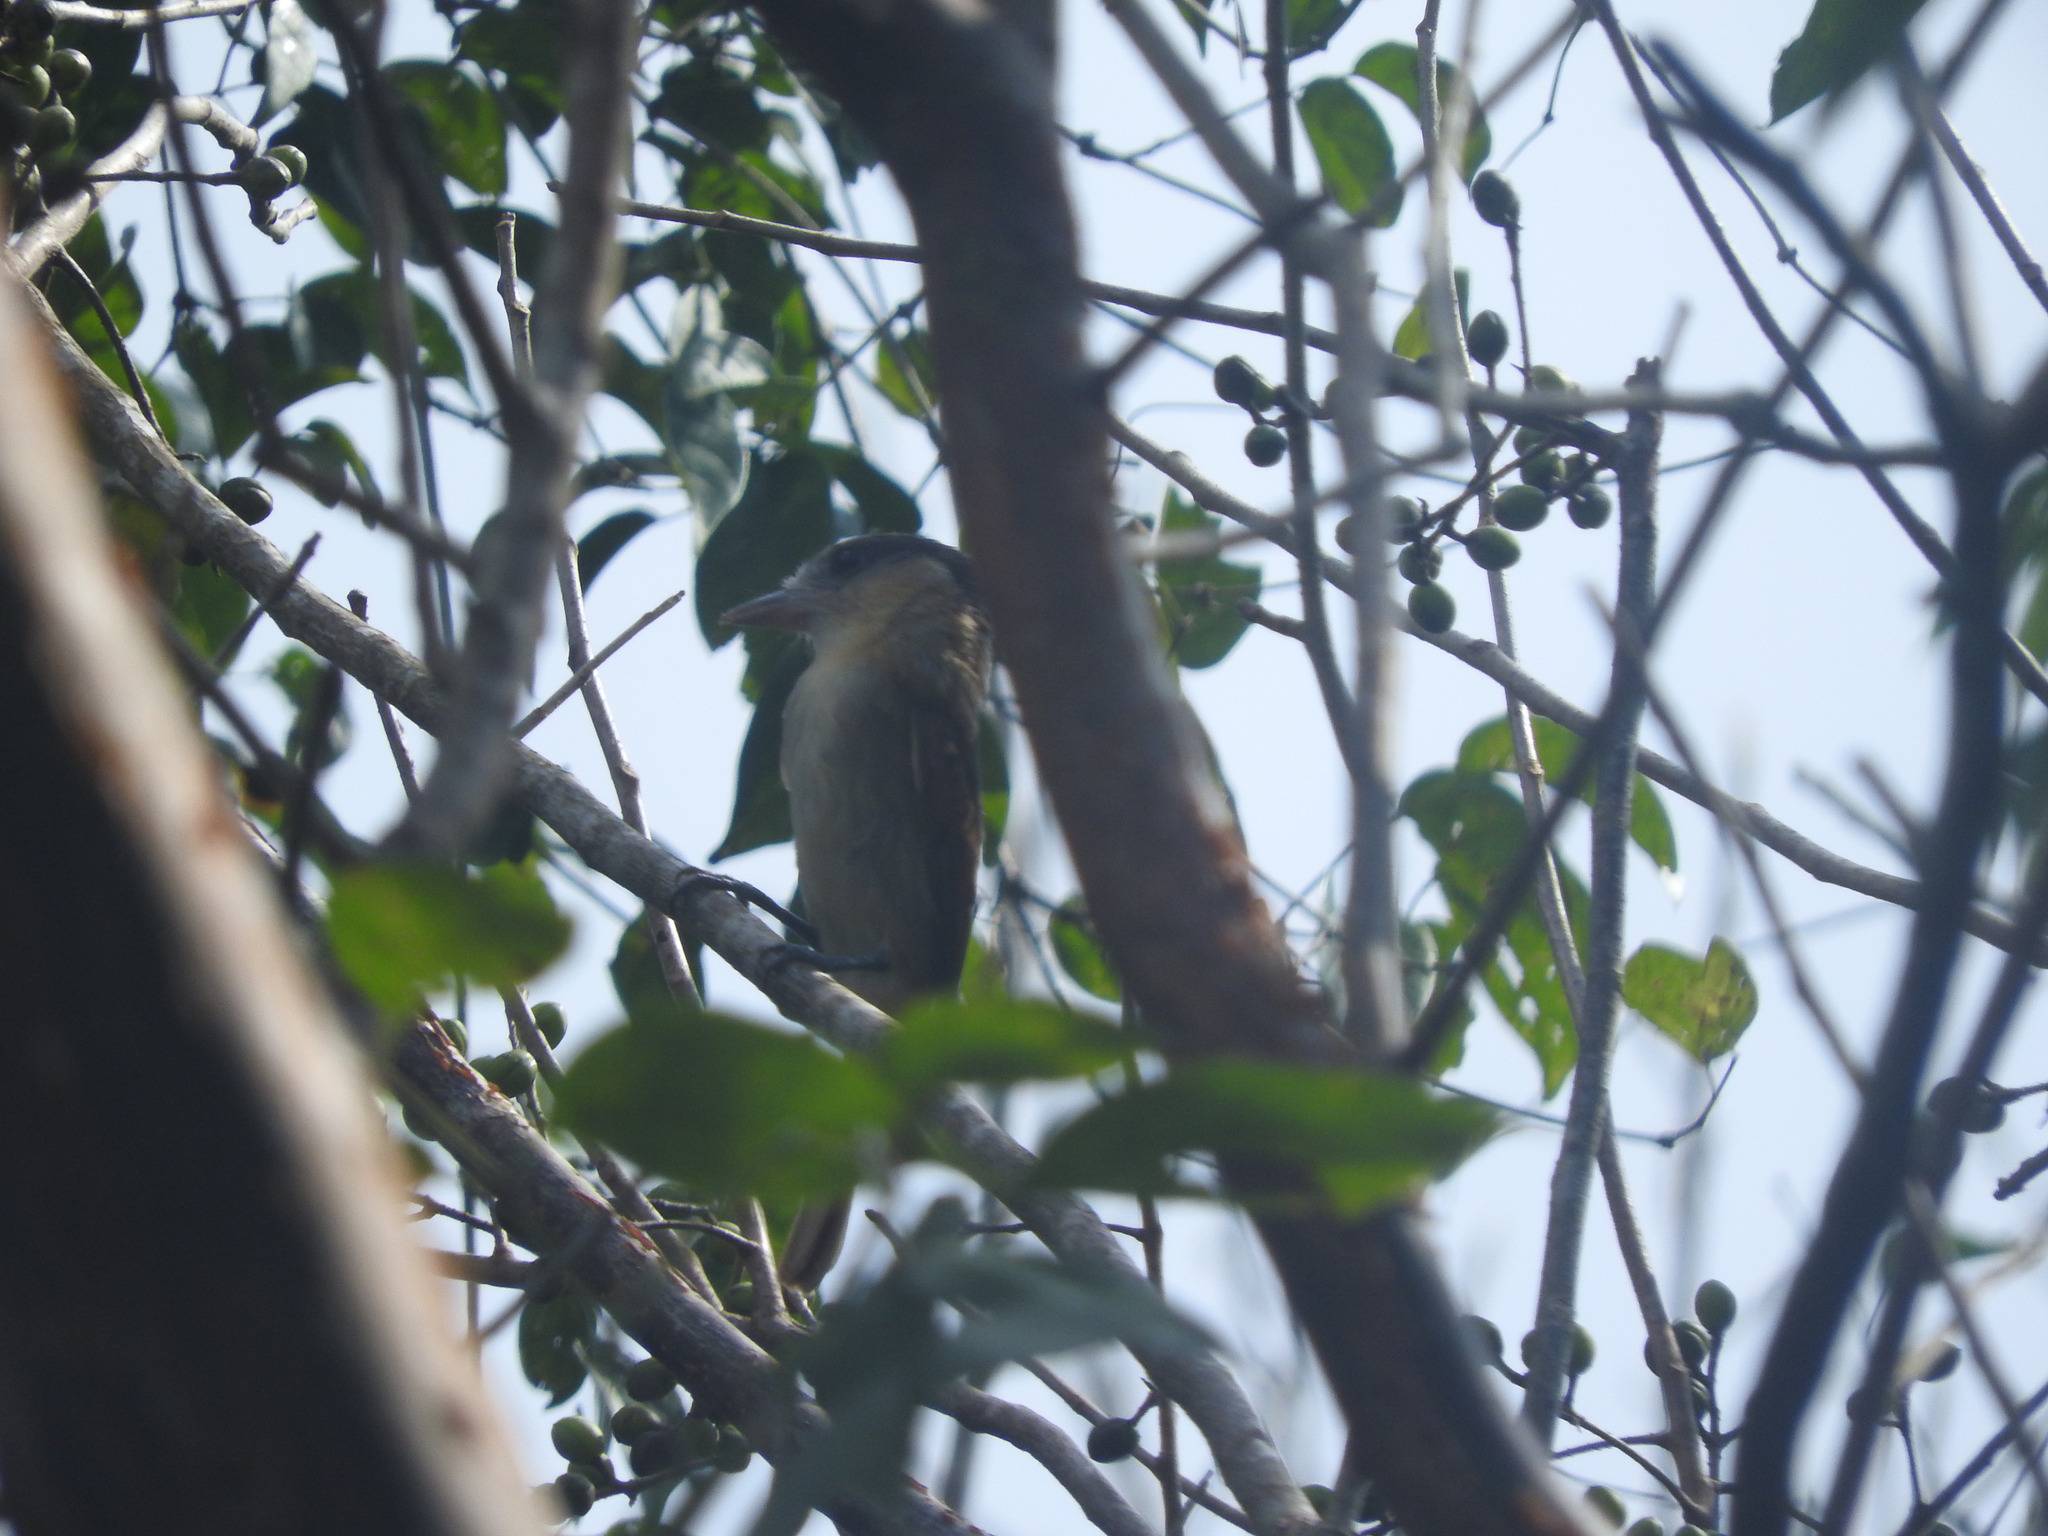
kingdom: Animalia
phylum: Chordata
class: Aves
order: Passeriformes
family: Cotingidae
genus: Pachyramphus
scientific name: Pachyramphus aglaiae
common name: Rose-throated becard
